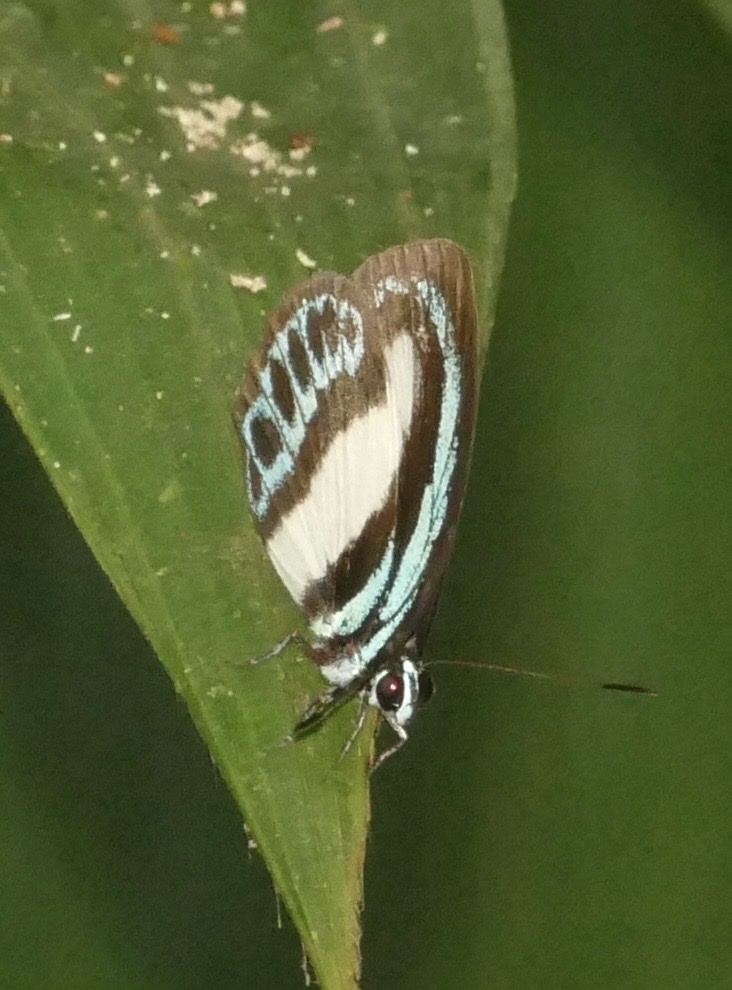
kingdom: Animalia
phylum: Arthropoda
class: Insecta
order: Lepidoptera
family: Lycaenidae
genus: Danis
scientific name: Danis danis
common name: Large green-banded blue
